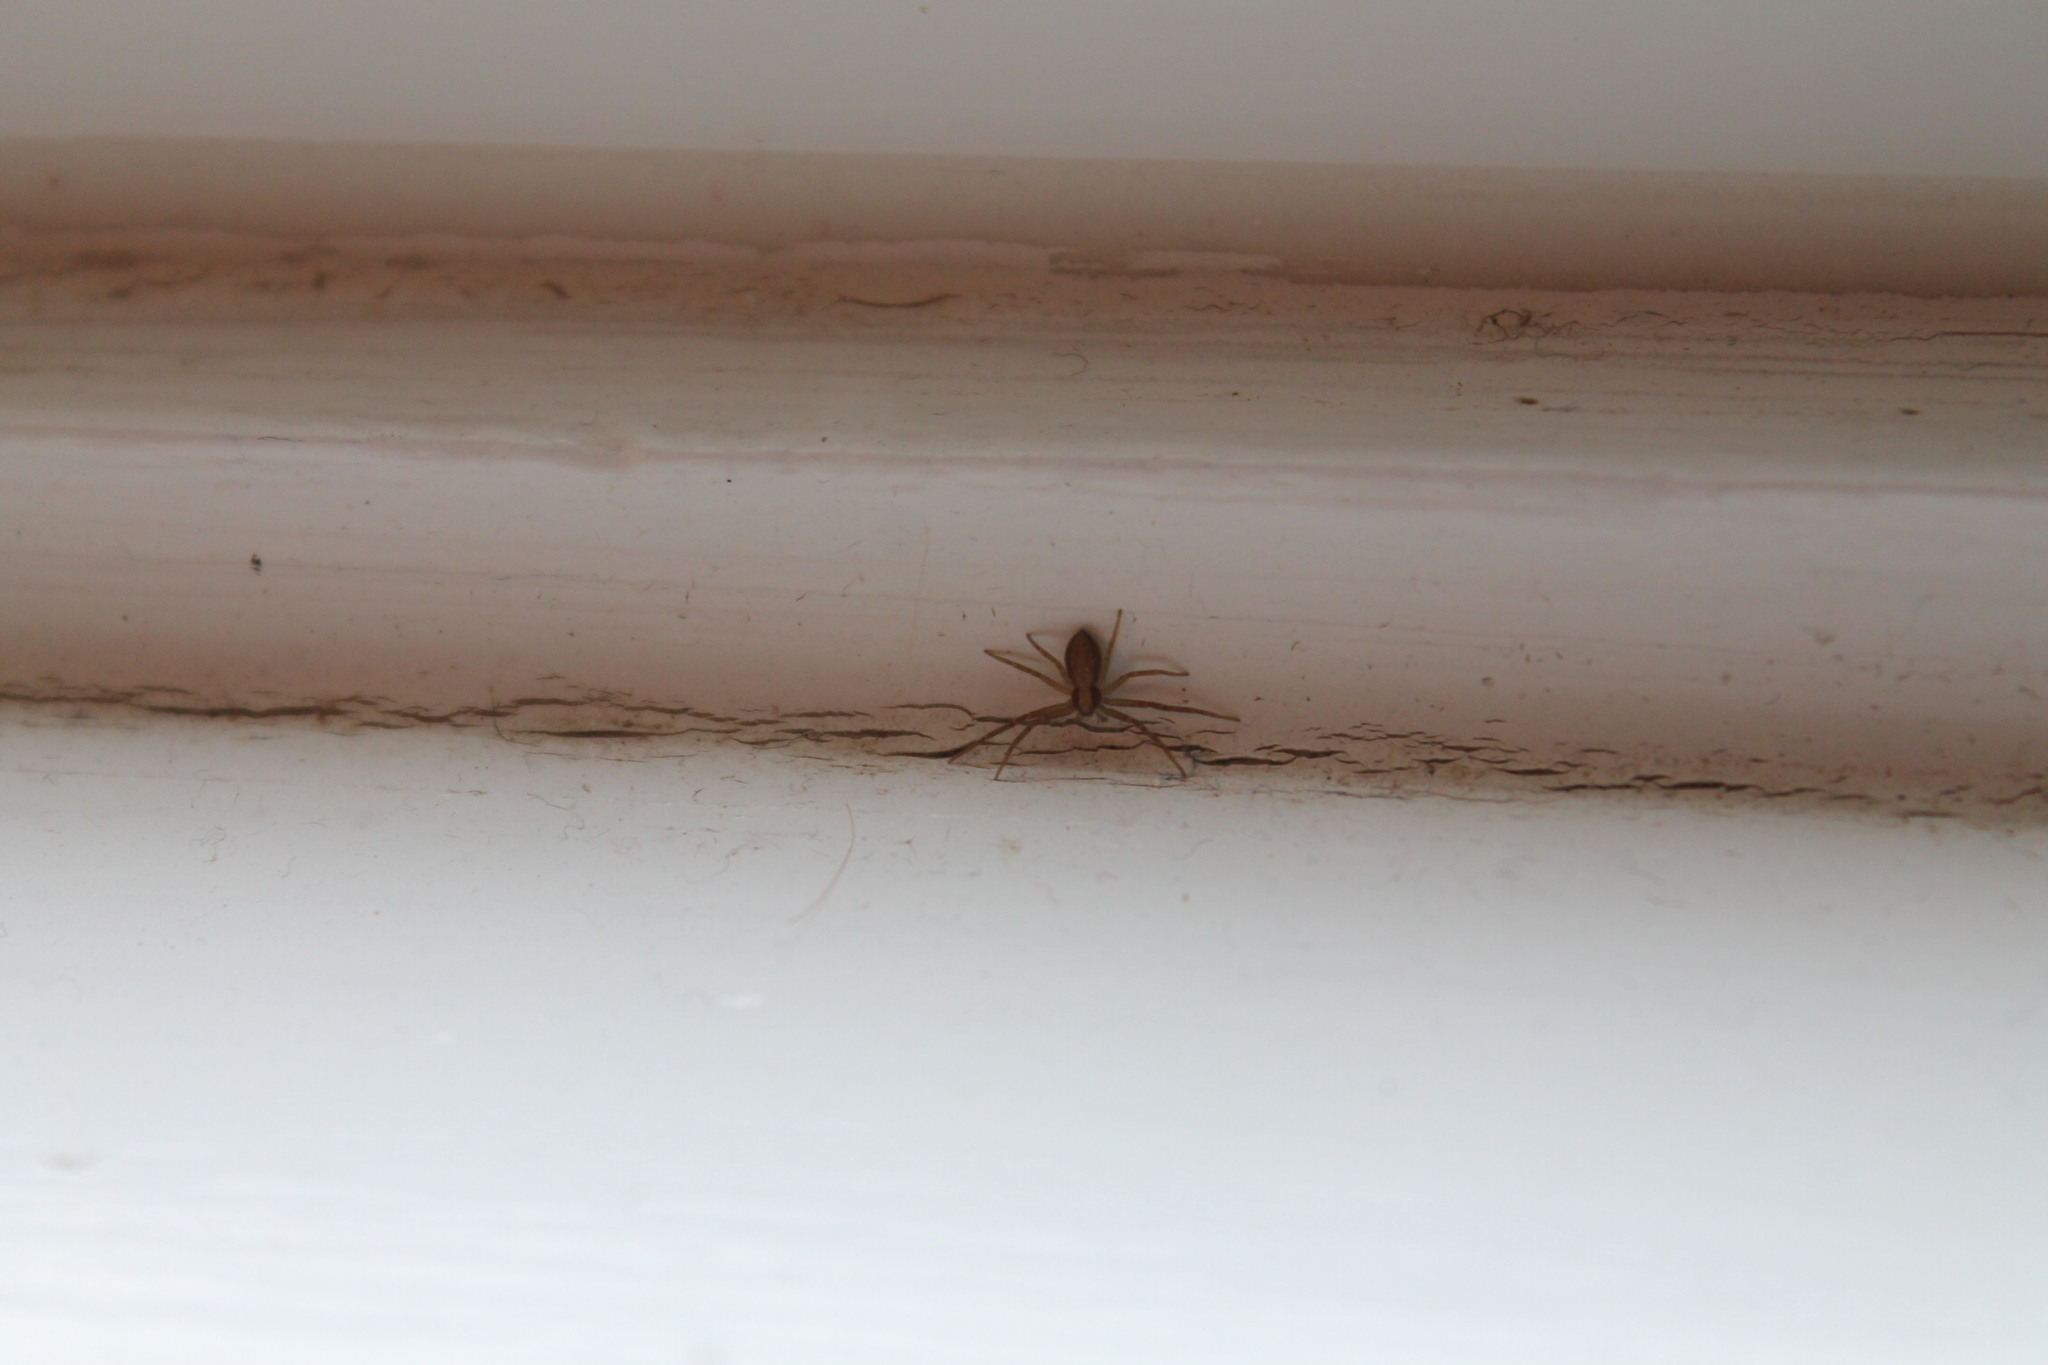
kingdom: Animalia
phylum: Arthropoda
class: Arachnida
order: Araneae
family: Philodromidae
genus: Philodromus
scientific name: Philodromus
